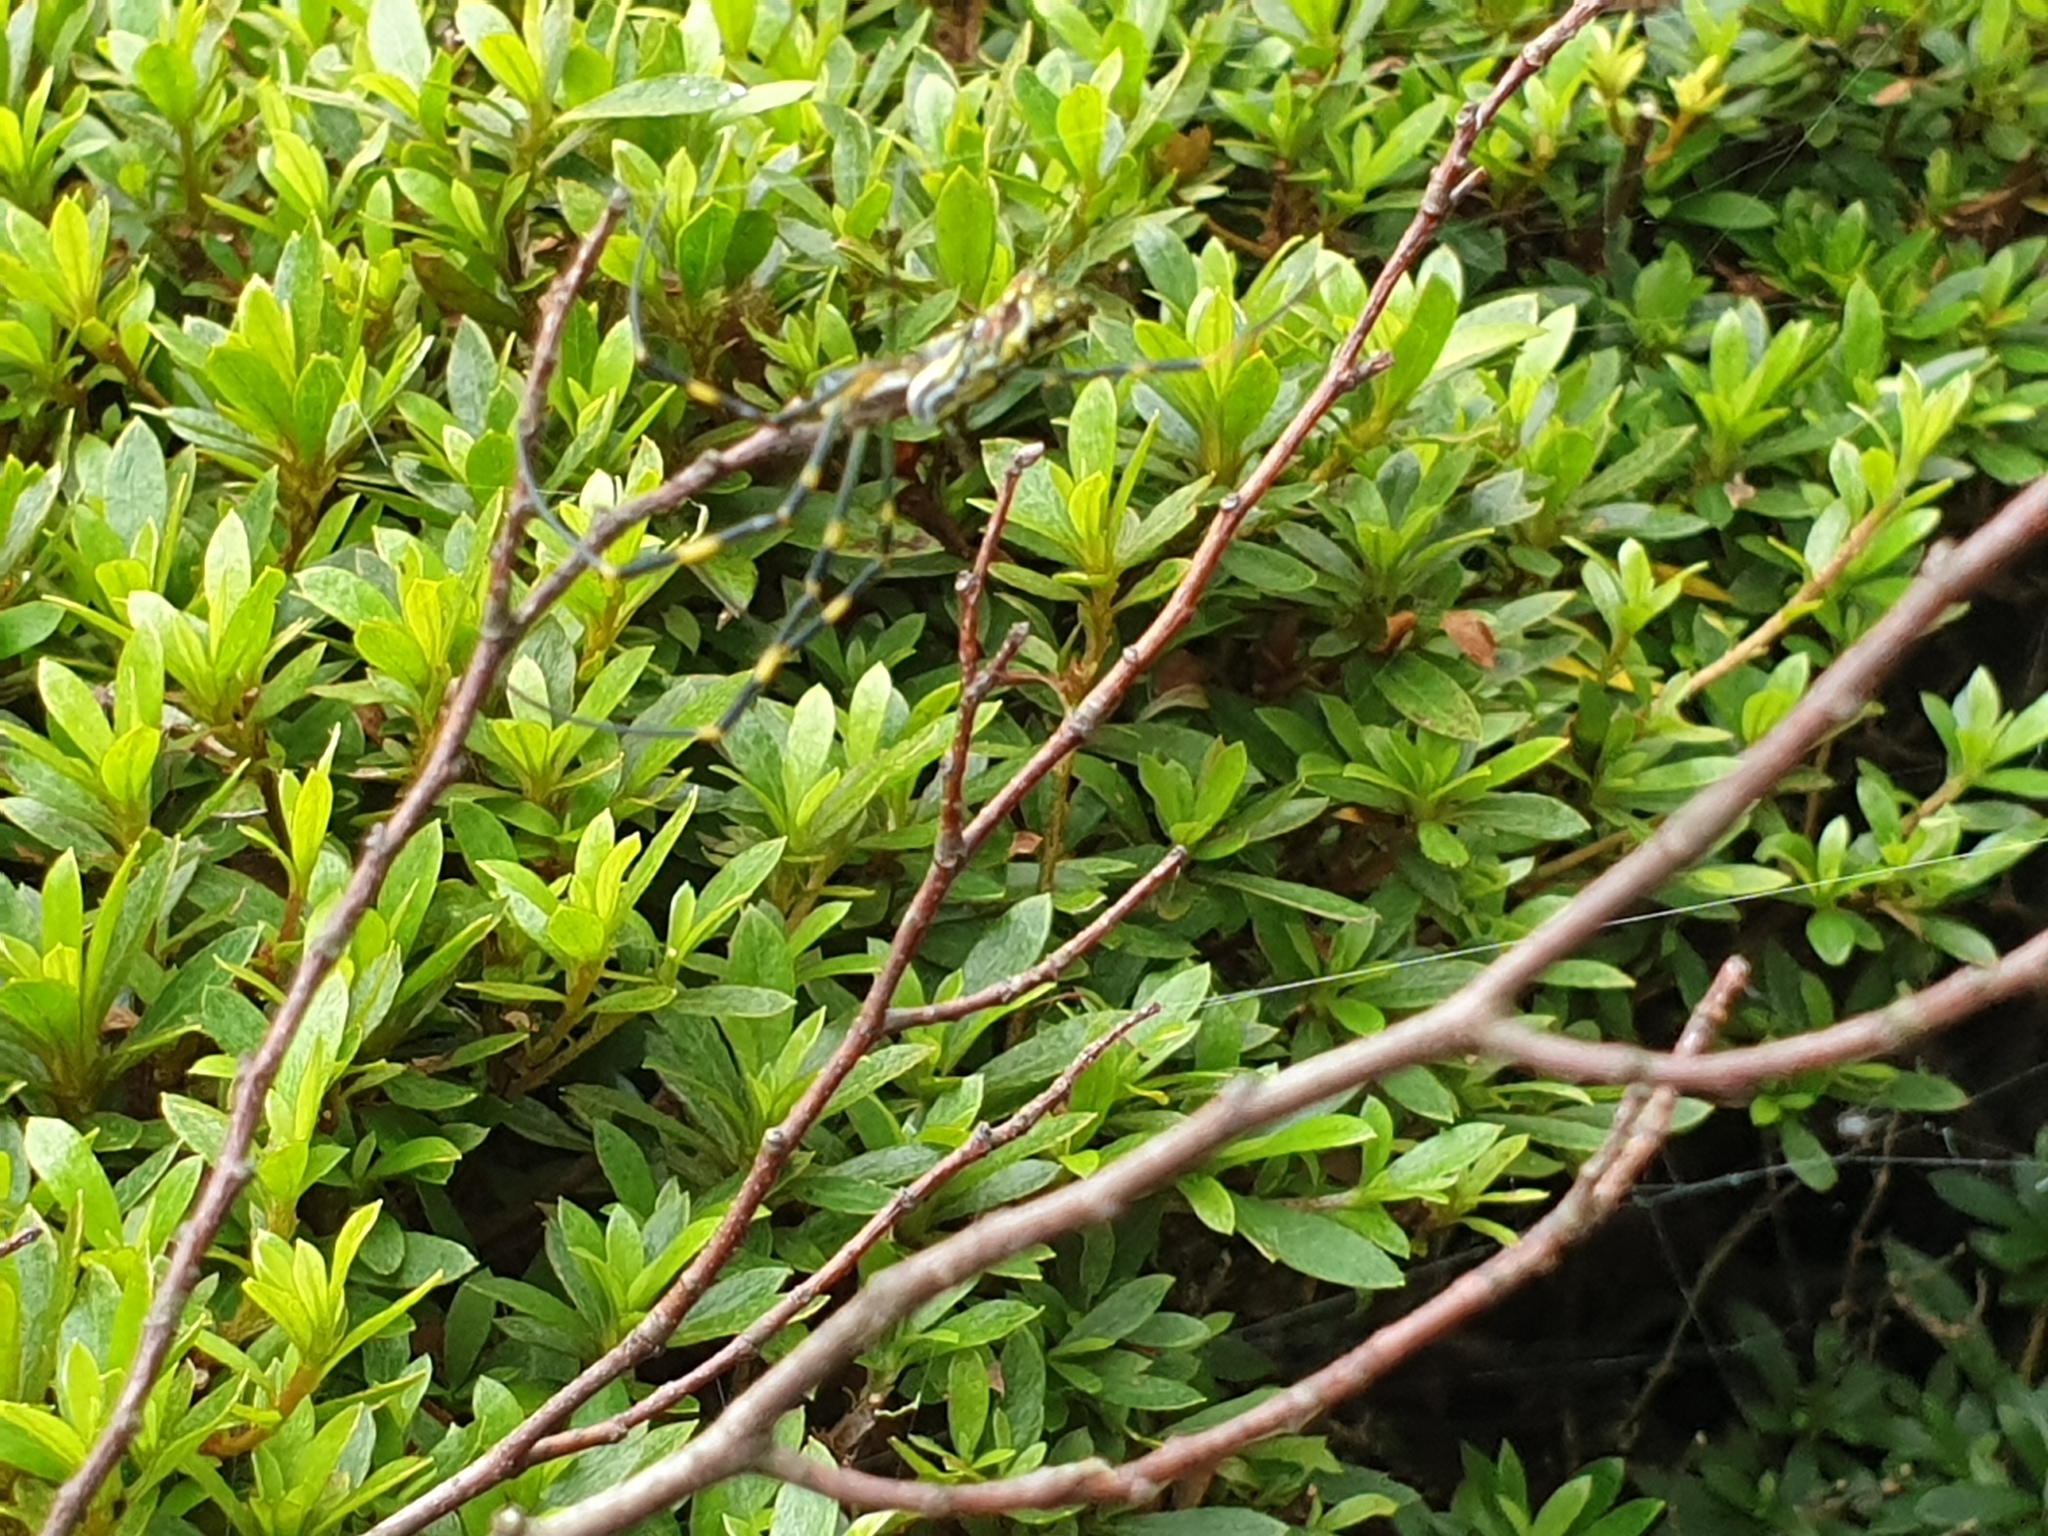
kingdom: Animalia
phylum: Arthropoda
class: Arachnida
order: Araneae
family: Araneidae
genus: Trichonephila
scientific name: Trichonephila clavata
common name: Jorō spider
